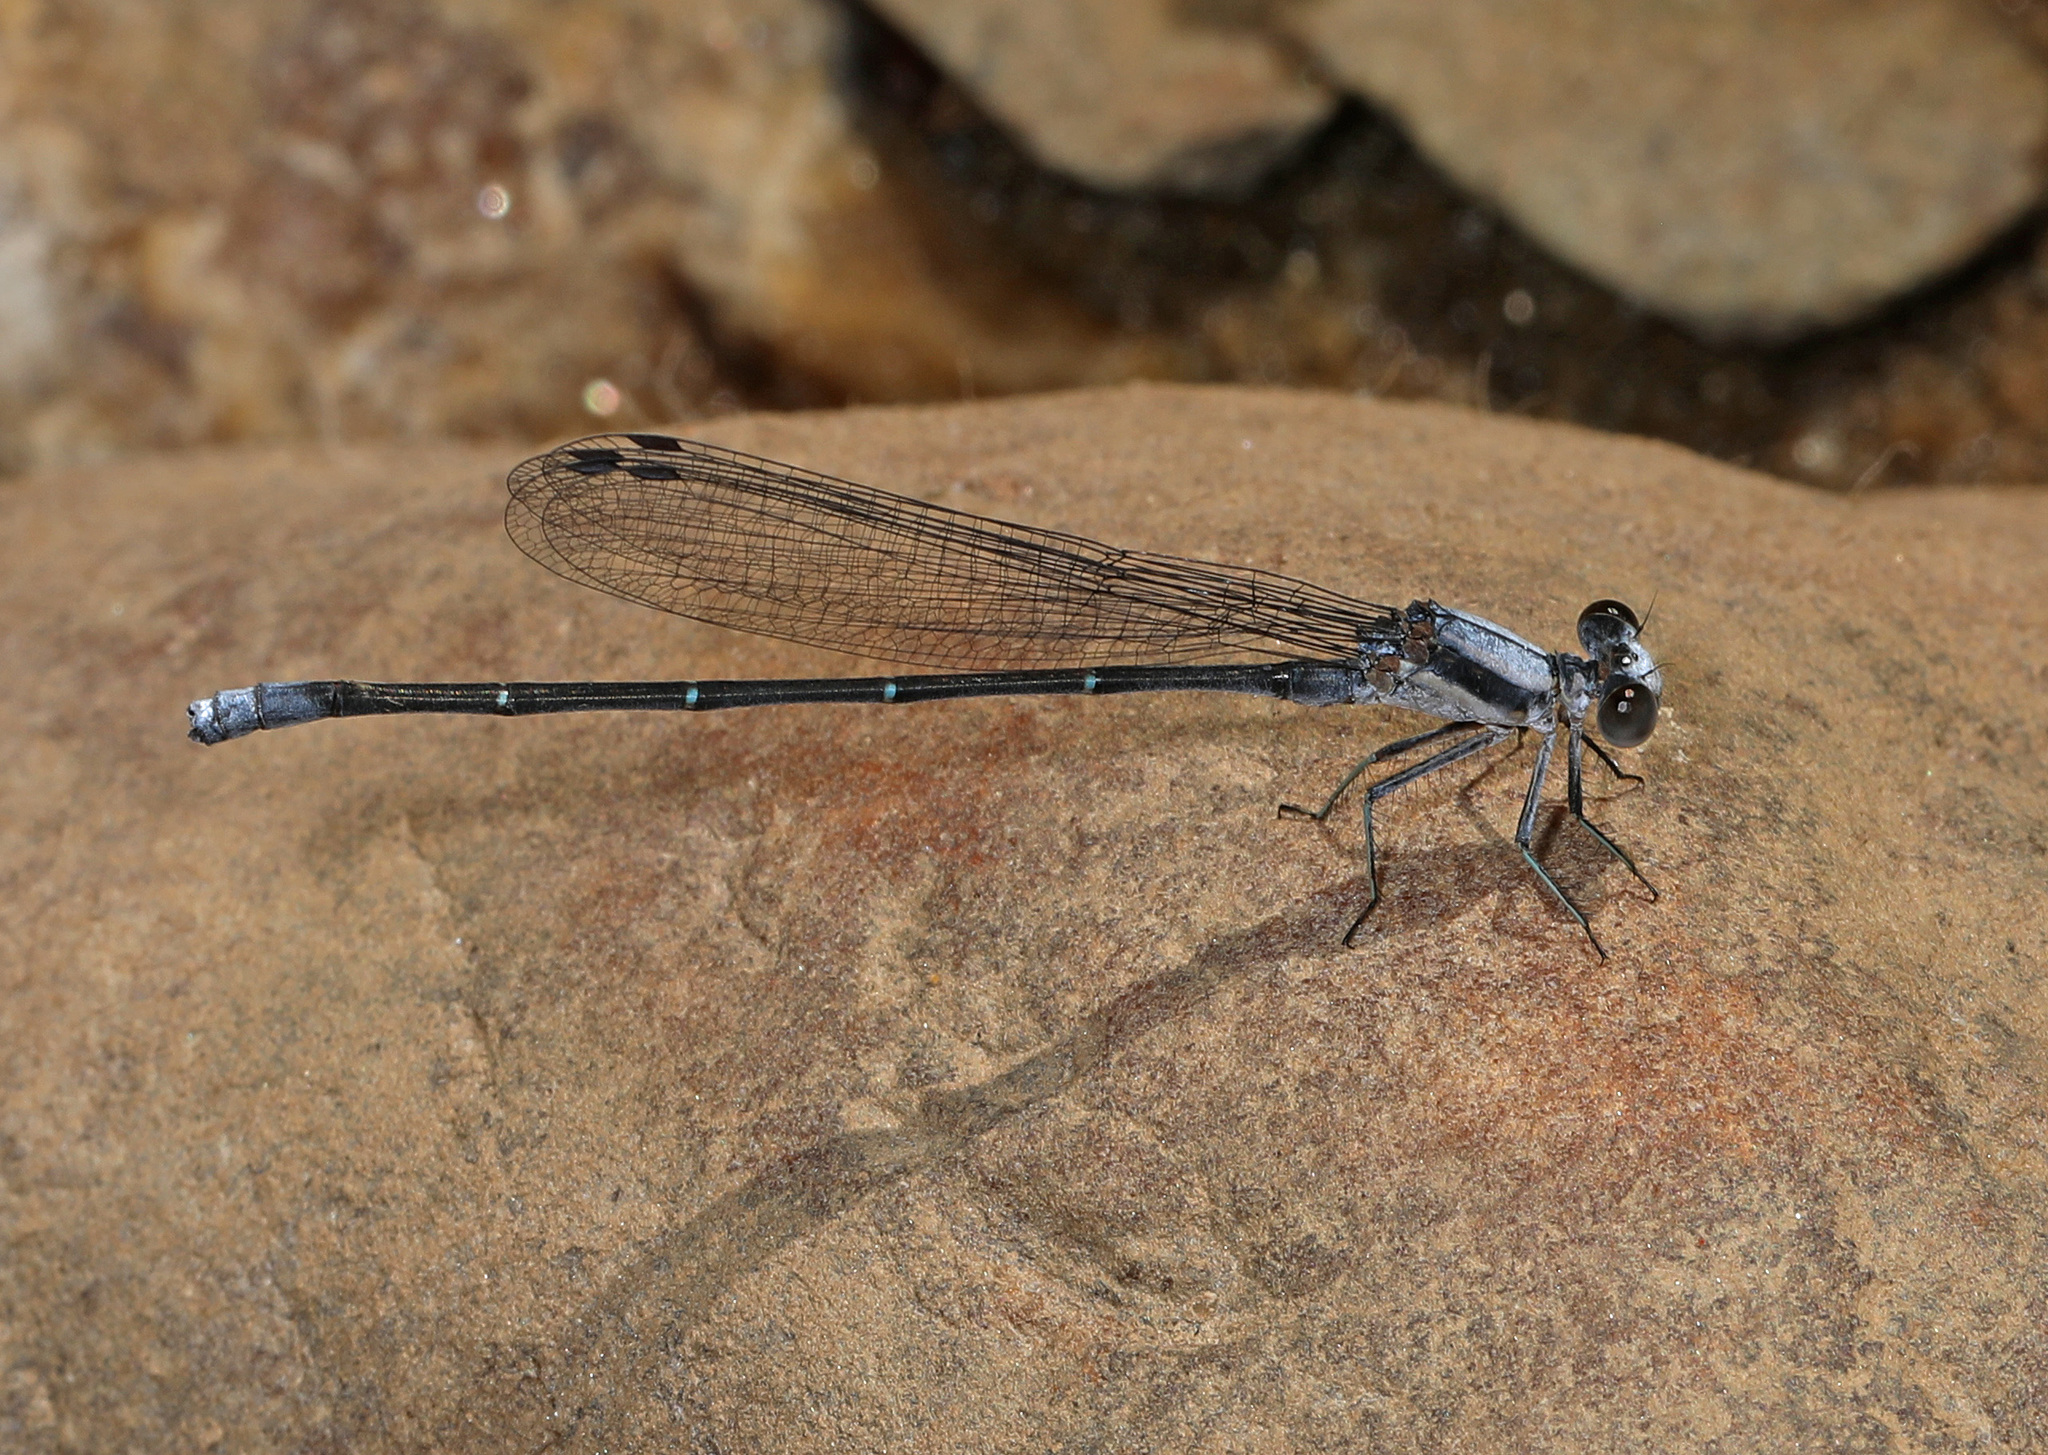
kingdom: Animalia
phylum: Arthropoda
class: Insecta
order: Odonata
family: Coenagrionidae
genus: Argia
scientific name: Argia moesta
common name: Powdered dancer
